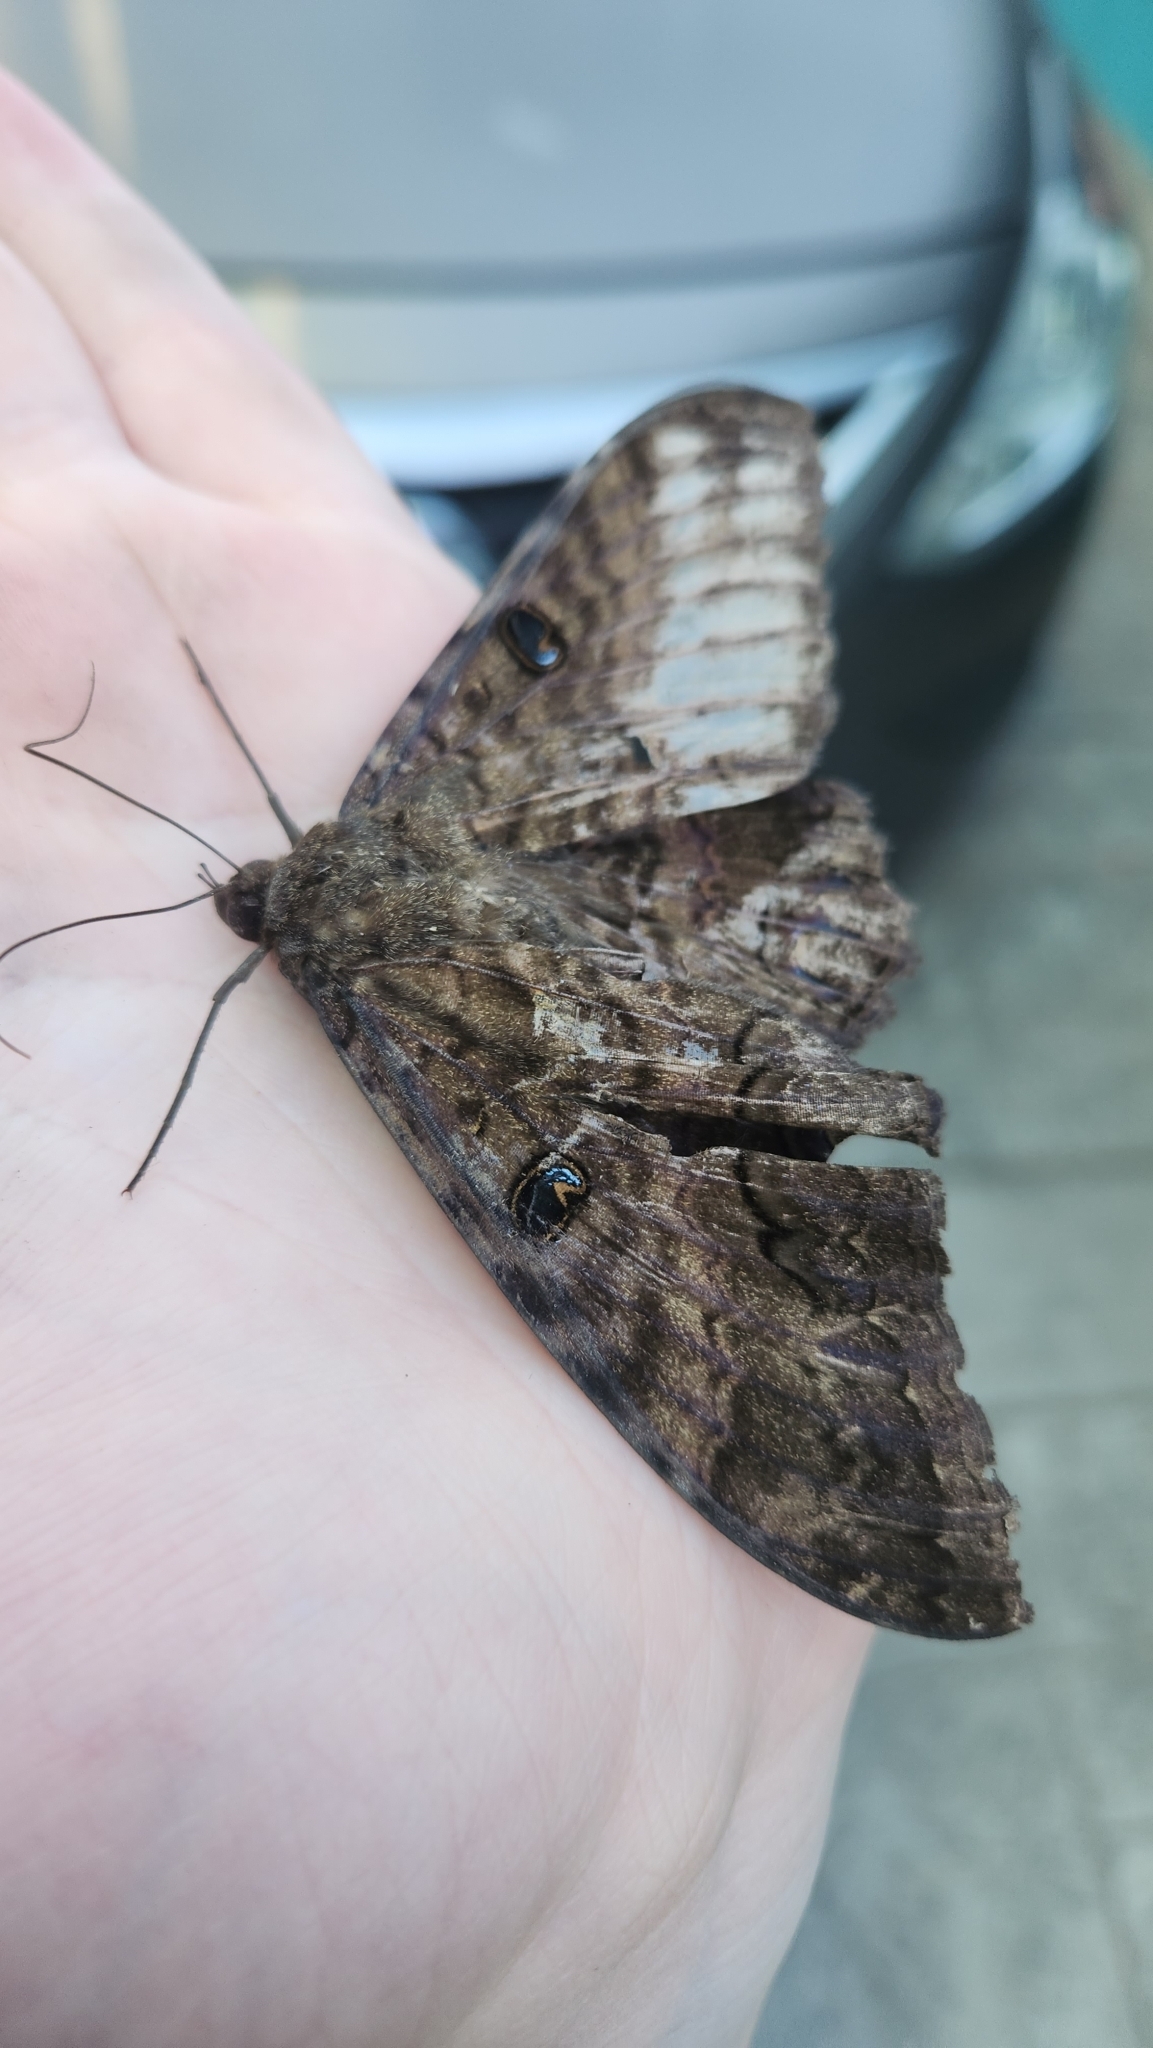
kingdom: Animalia
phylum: Arthropoda
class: Insecta
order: Lepidoptera
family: Erebidae
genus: Ascalapha
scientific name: Ascalapha odorata
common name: Black witch
